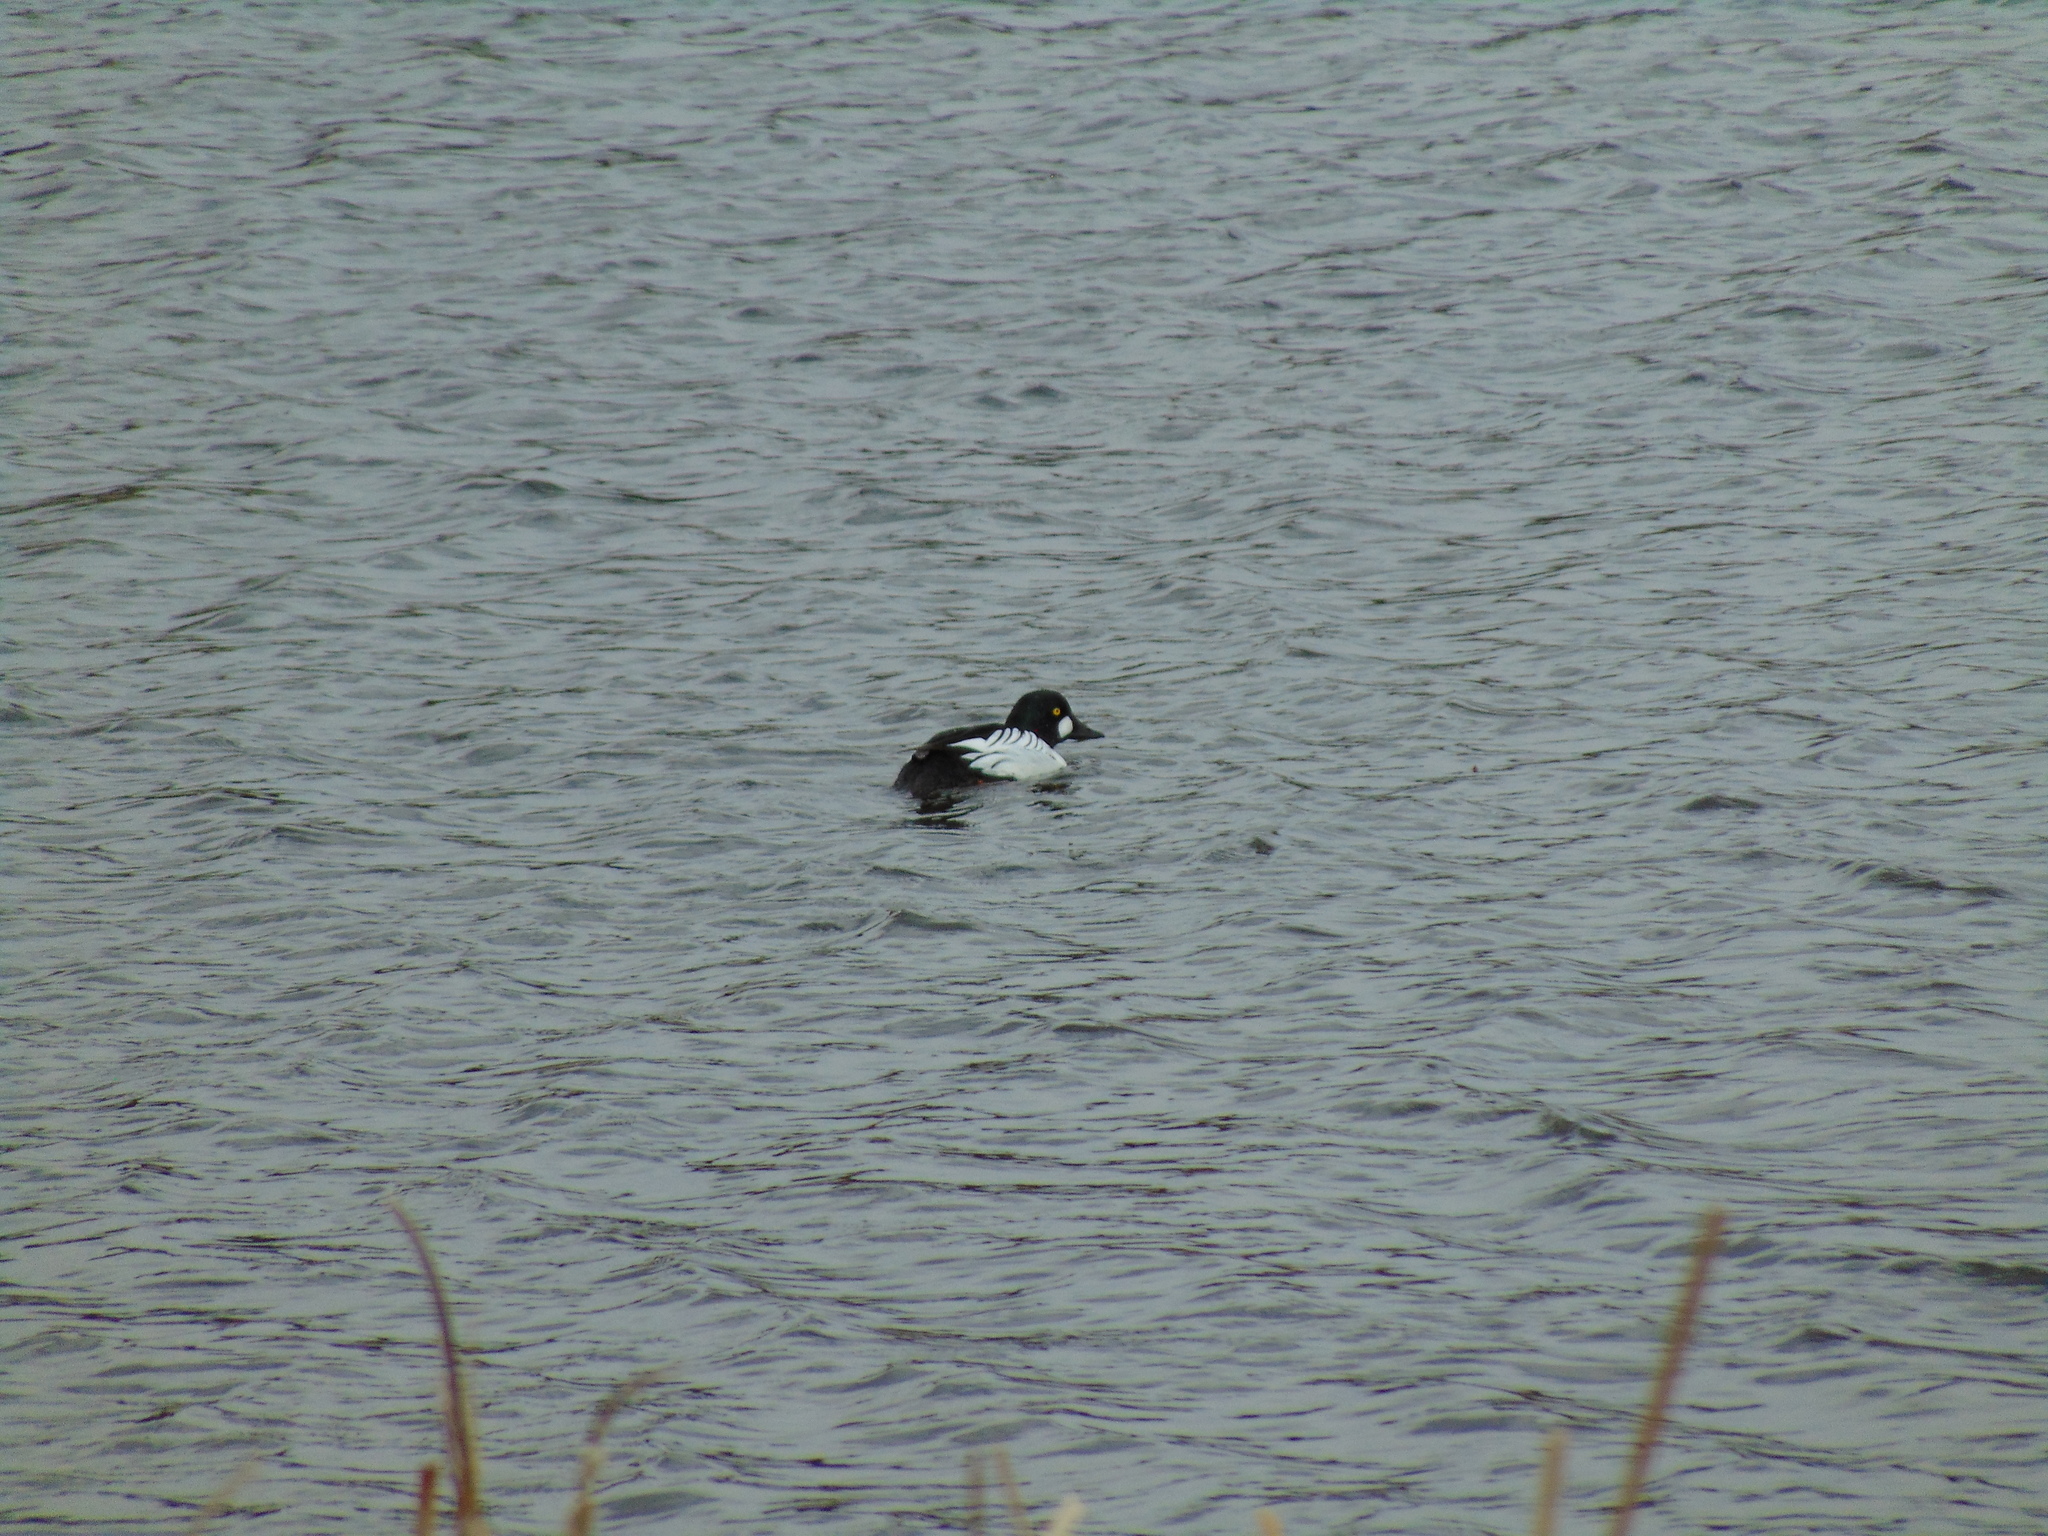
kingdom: Animalia
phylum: Chordata
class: Aves
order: Anseriformes
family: Anatidae
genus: Bucephala
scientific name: Bucephala clangula
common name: Common goldeneye
